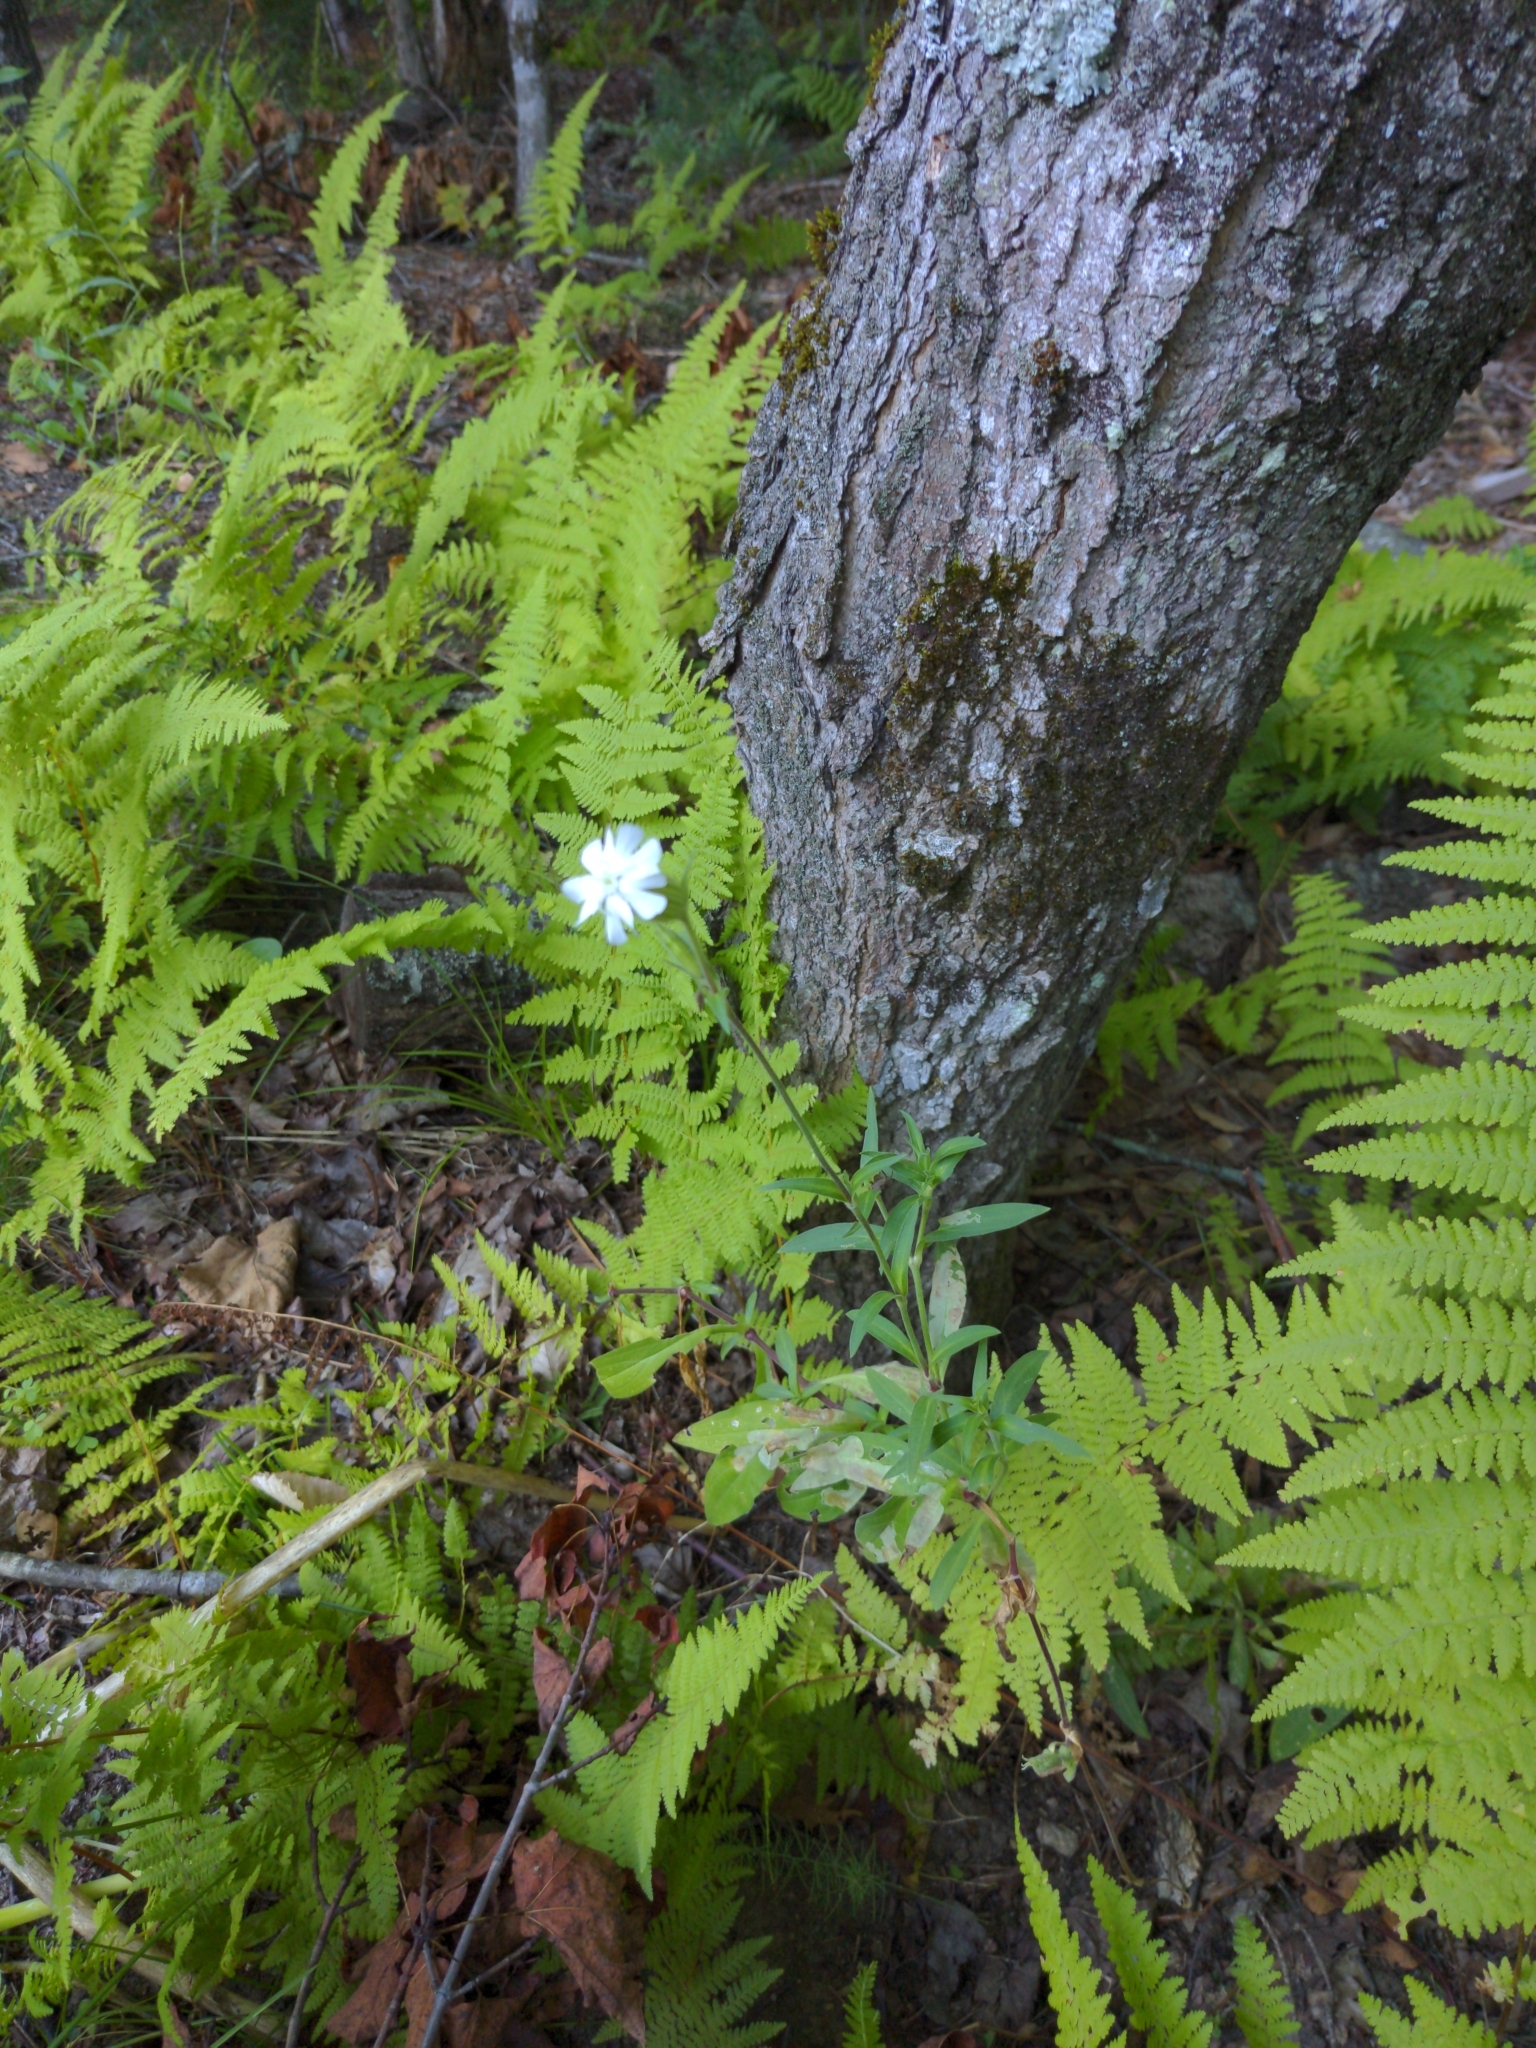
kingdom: Plantae
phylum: Tracheophyta
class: Magnoliopsida
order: Caryophyllales
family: Caryophyllaceae
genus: Silene
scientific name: Silene latifolia
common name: White campion
